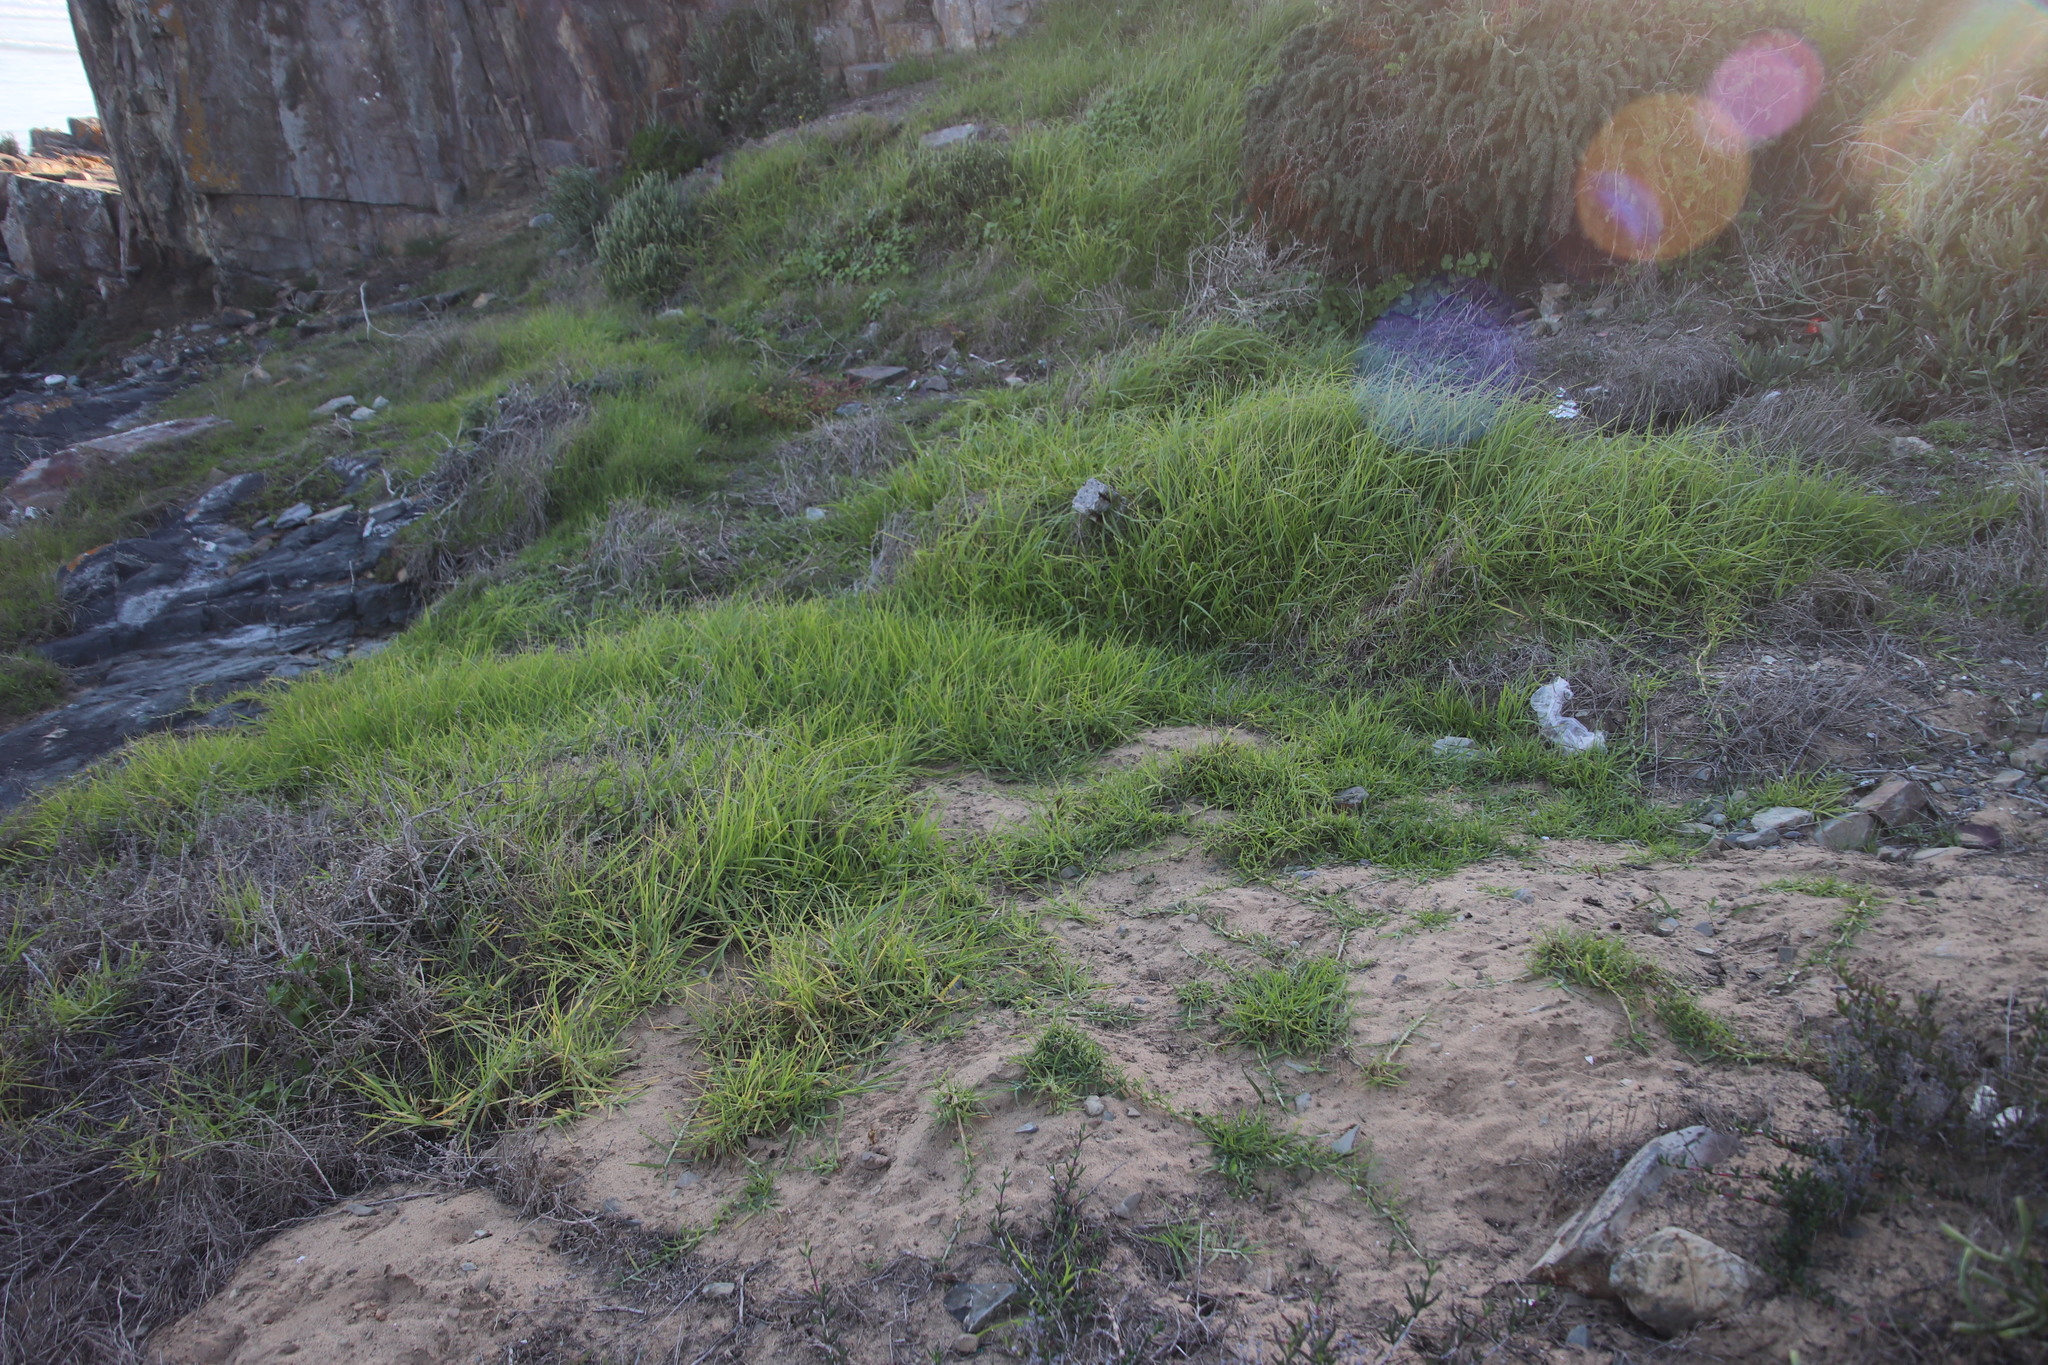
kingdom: Plantae
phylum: Tracheophyta
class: Liliopsida
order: Poales
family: Poaceae
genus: Cenchrus
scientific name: Cenchrus clandestinus
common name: Kikuyugrass
